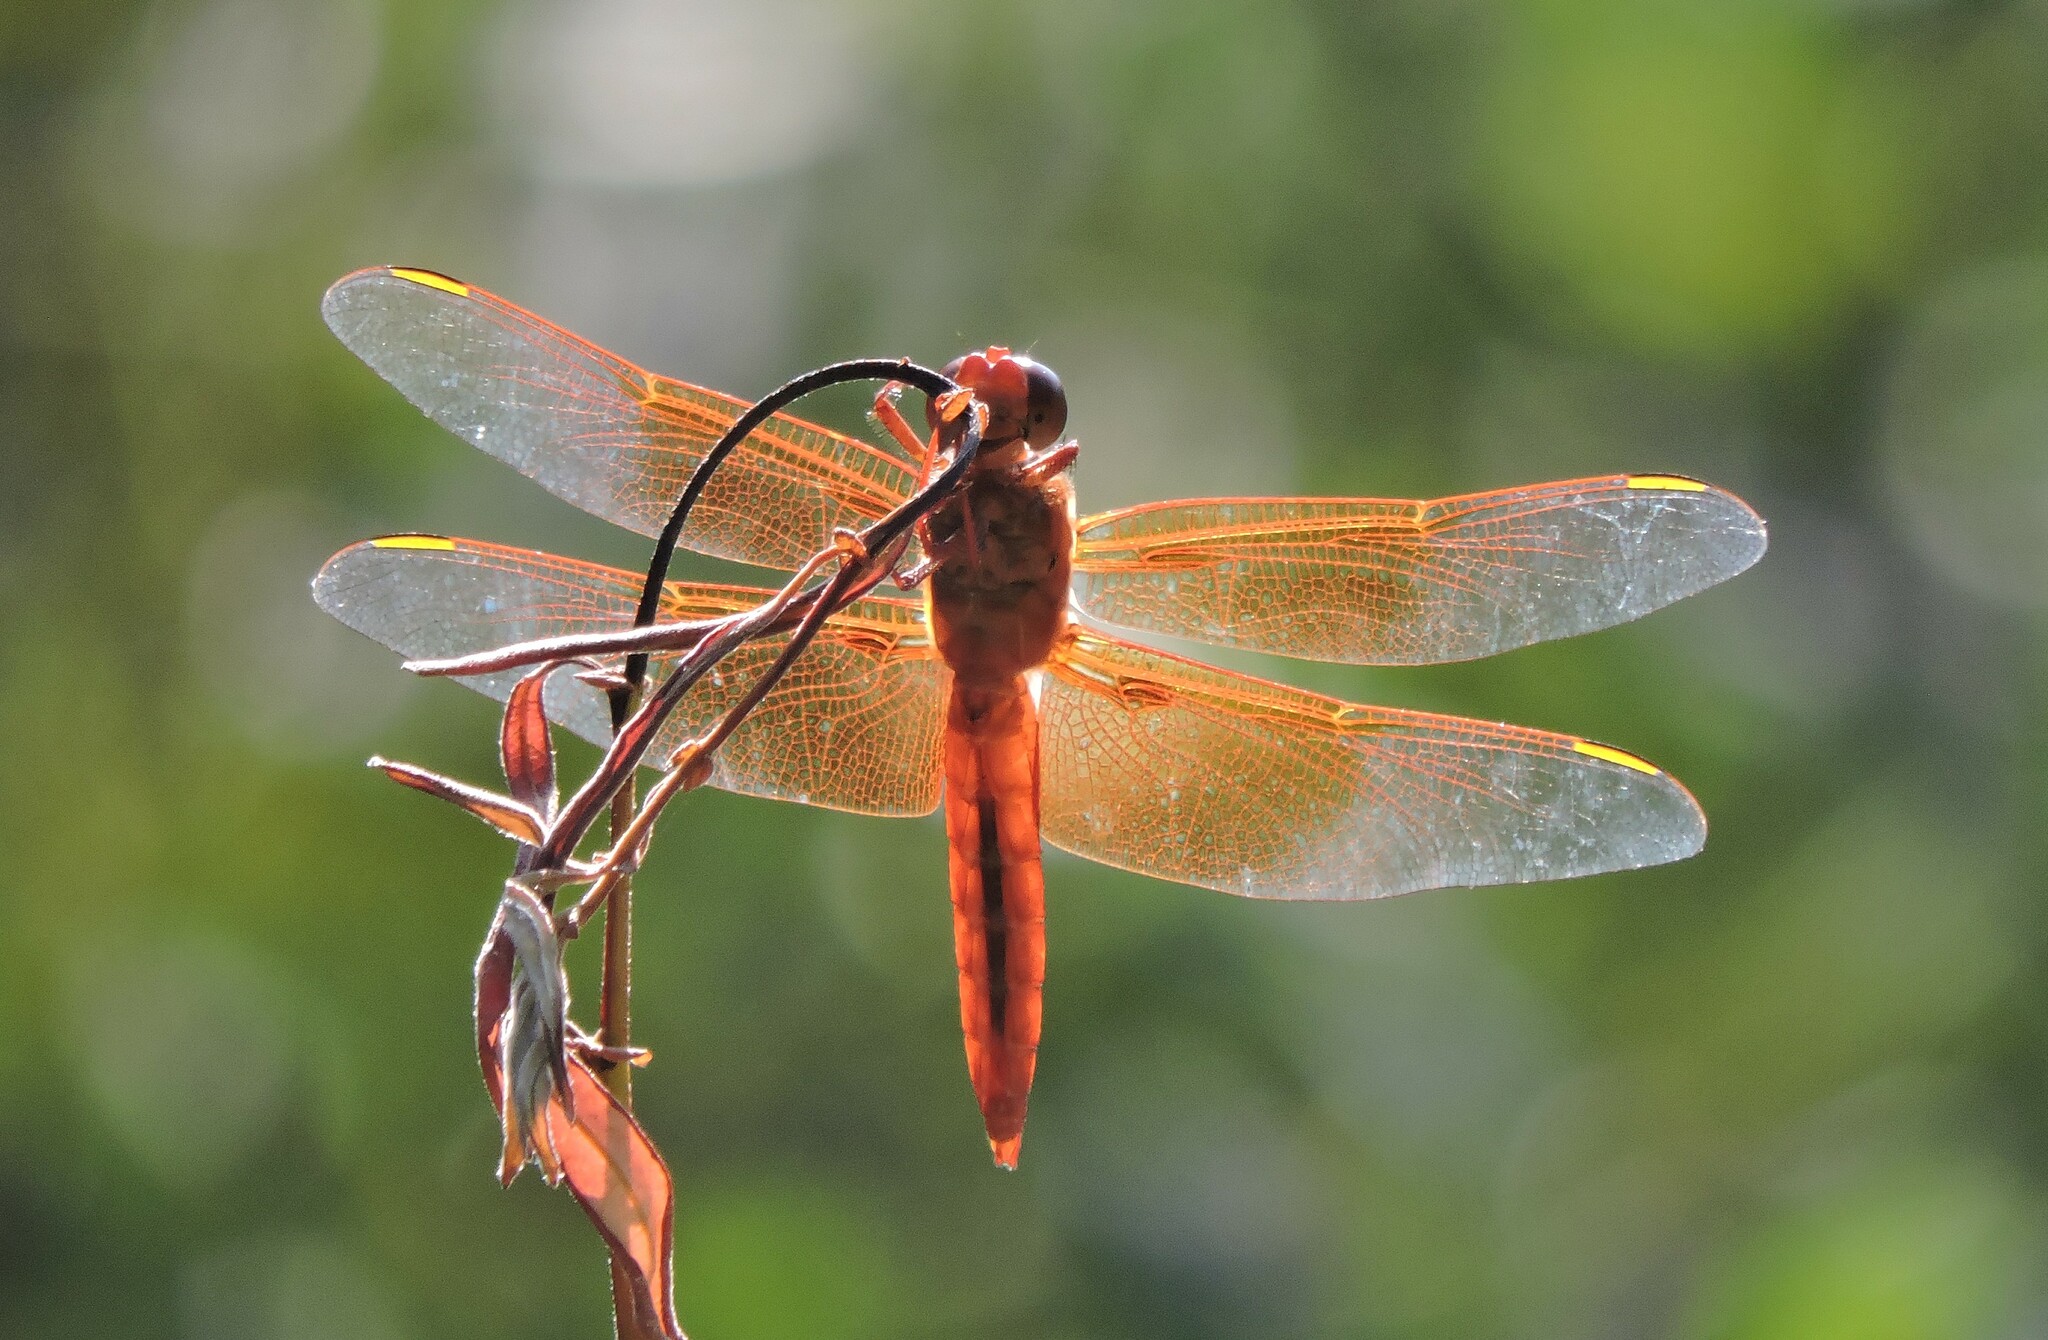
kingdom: Animalia
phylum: Arthropoda
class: Insecta
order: Odonata
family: Libellulidae
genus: Libellula
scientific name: Libellula saturata
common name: Flame skimmer
